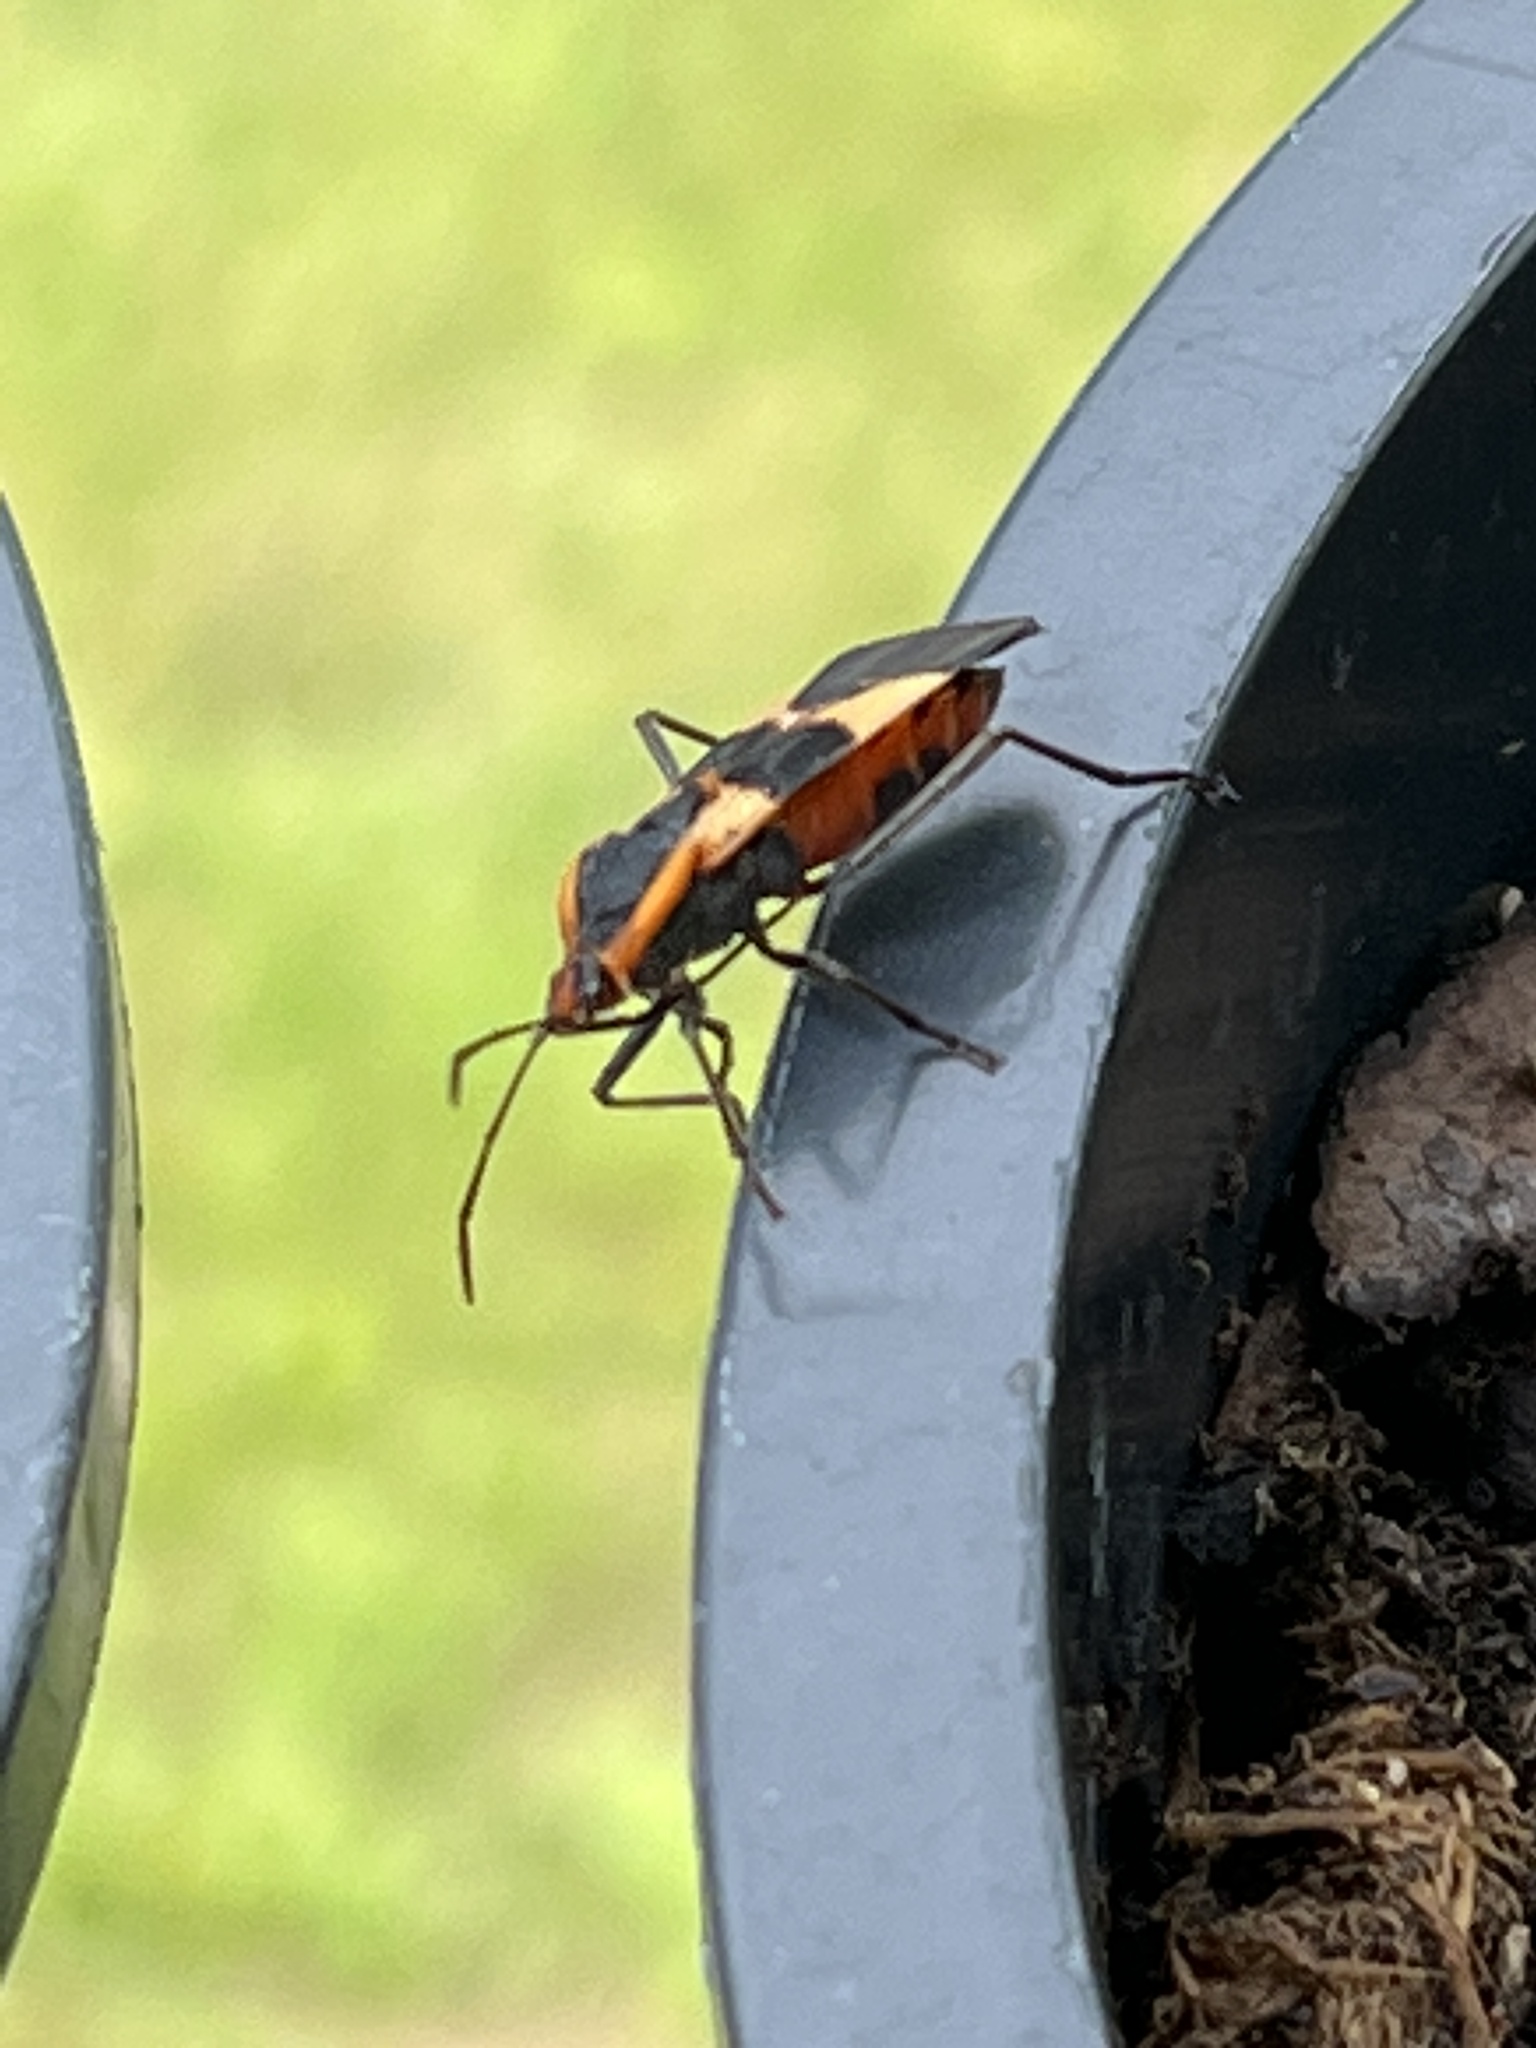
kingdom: Animalia
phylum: Arthropoda
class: Insecta
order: Hemiptera
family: Lygaeidae
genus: Oncopeltus
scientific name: Oncopeltus fasciatus
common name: Large milkweed bug
